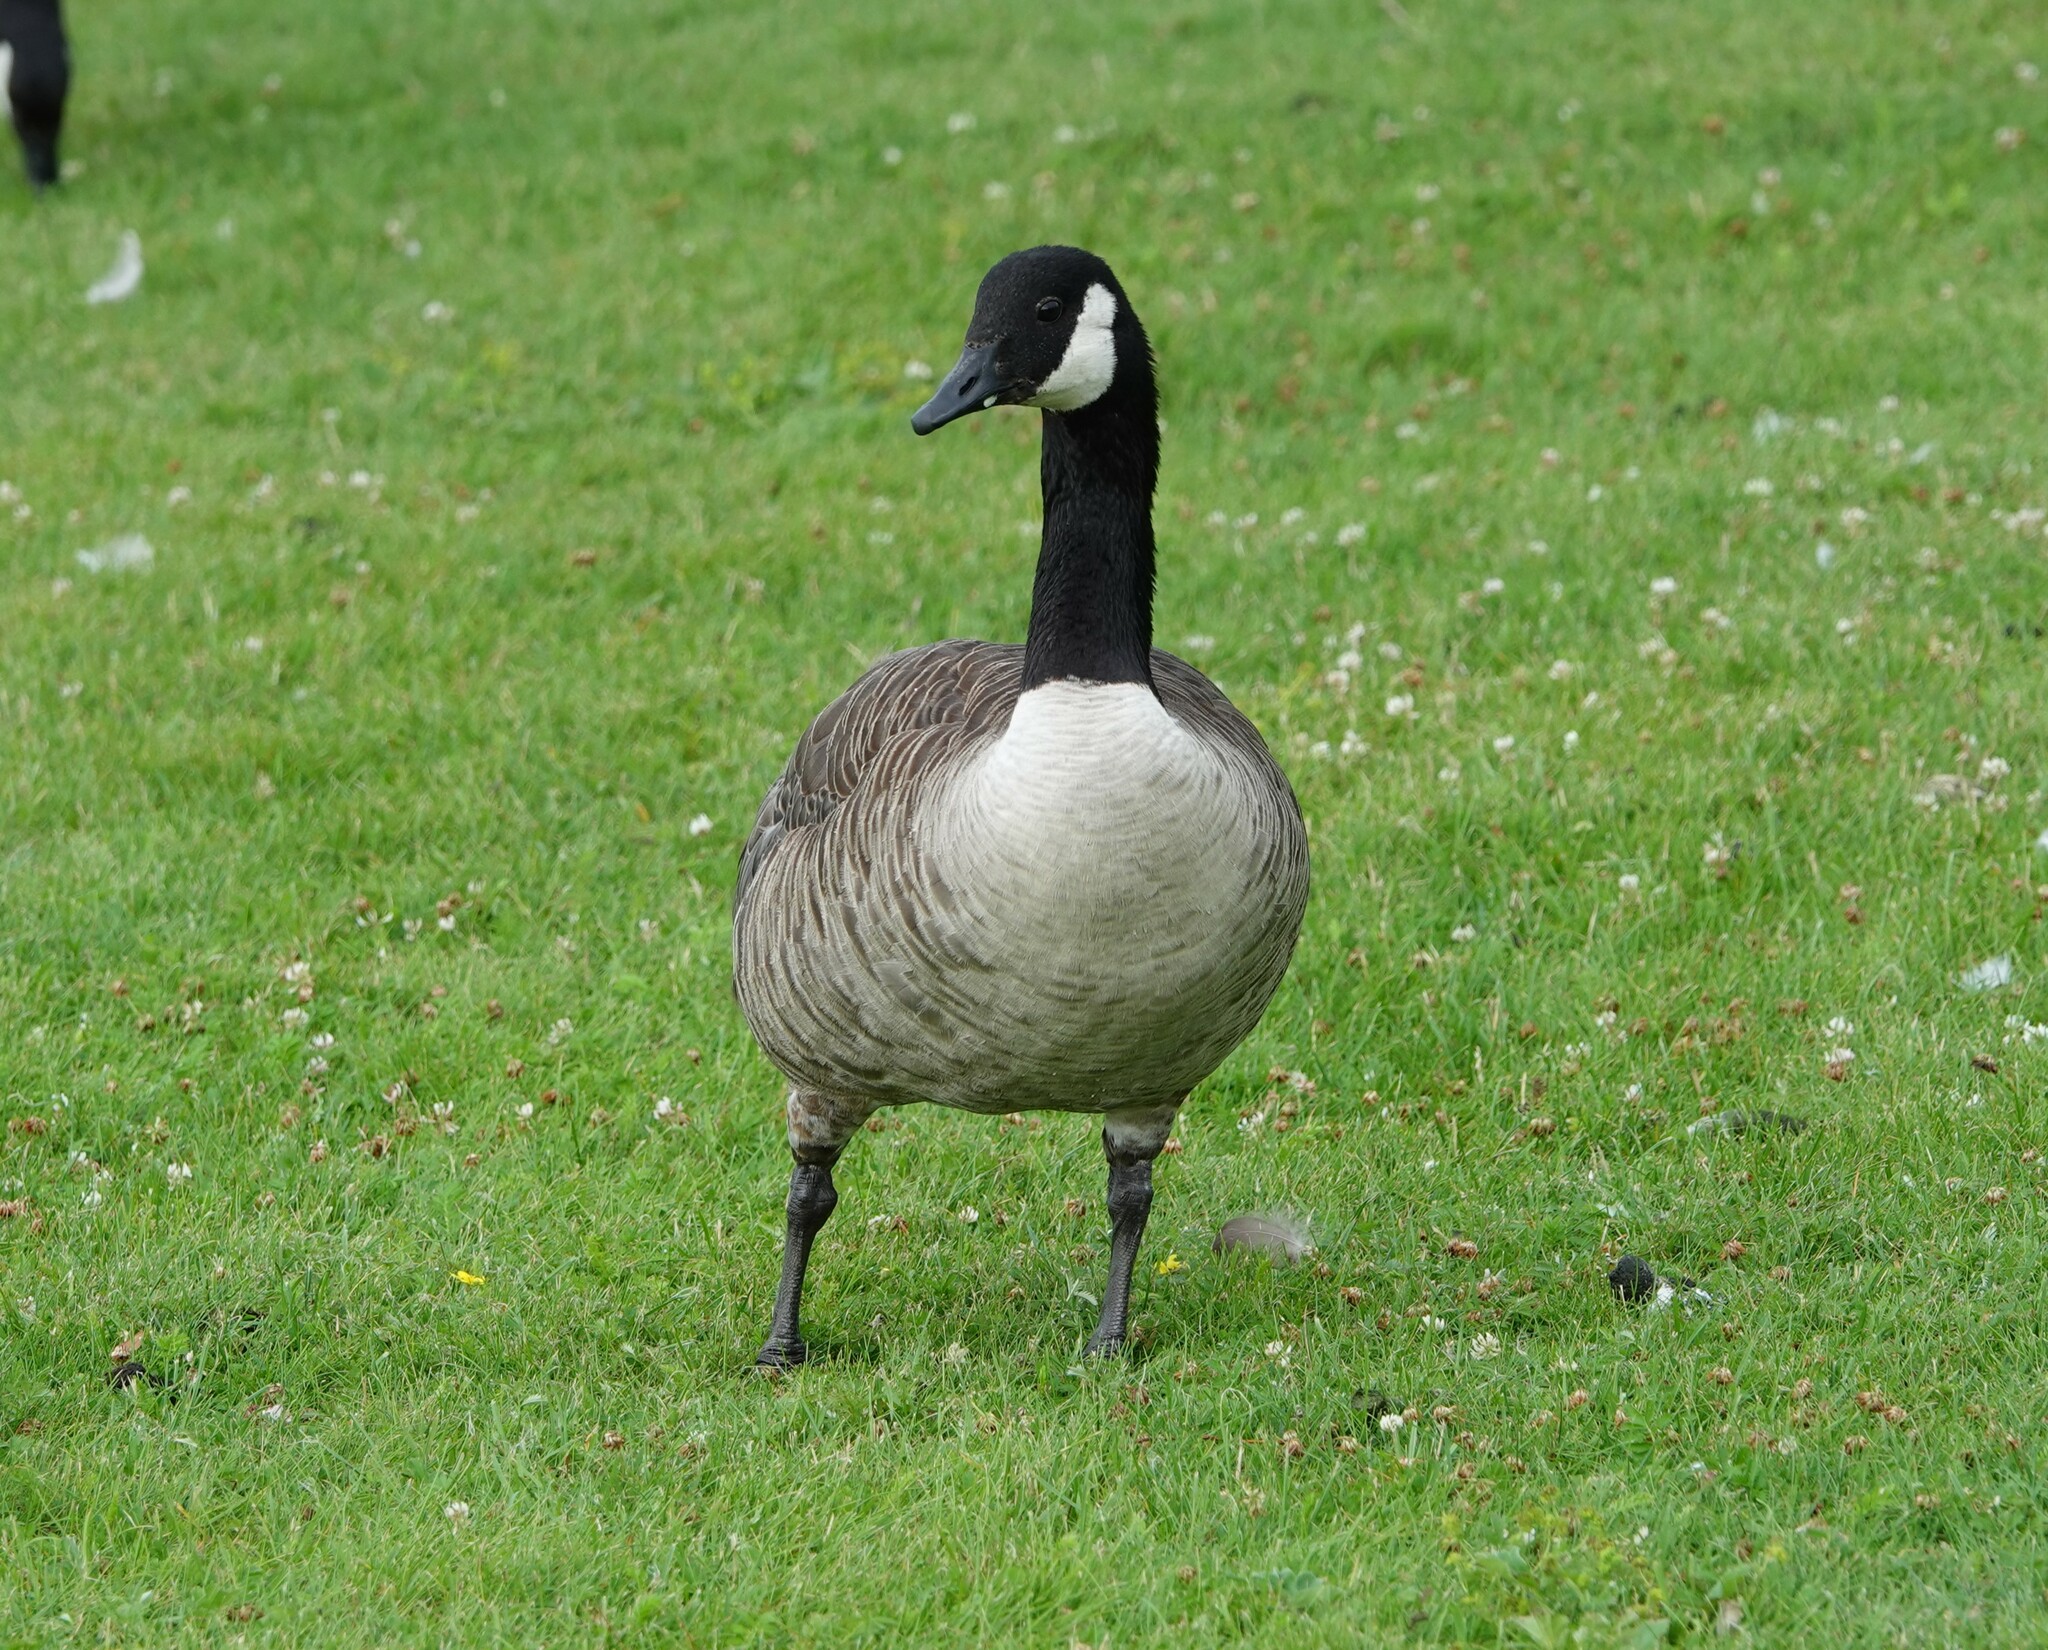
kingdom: Animalia
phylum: Chordata
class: Aves
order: Anseriformes
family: Anatidae
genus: Branta
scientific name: Branta canadensis
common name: Canada goose
